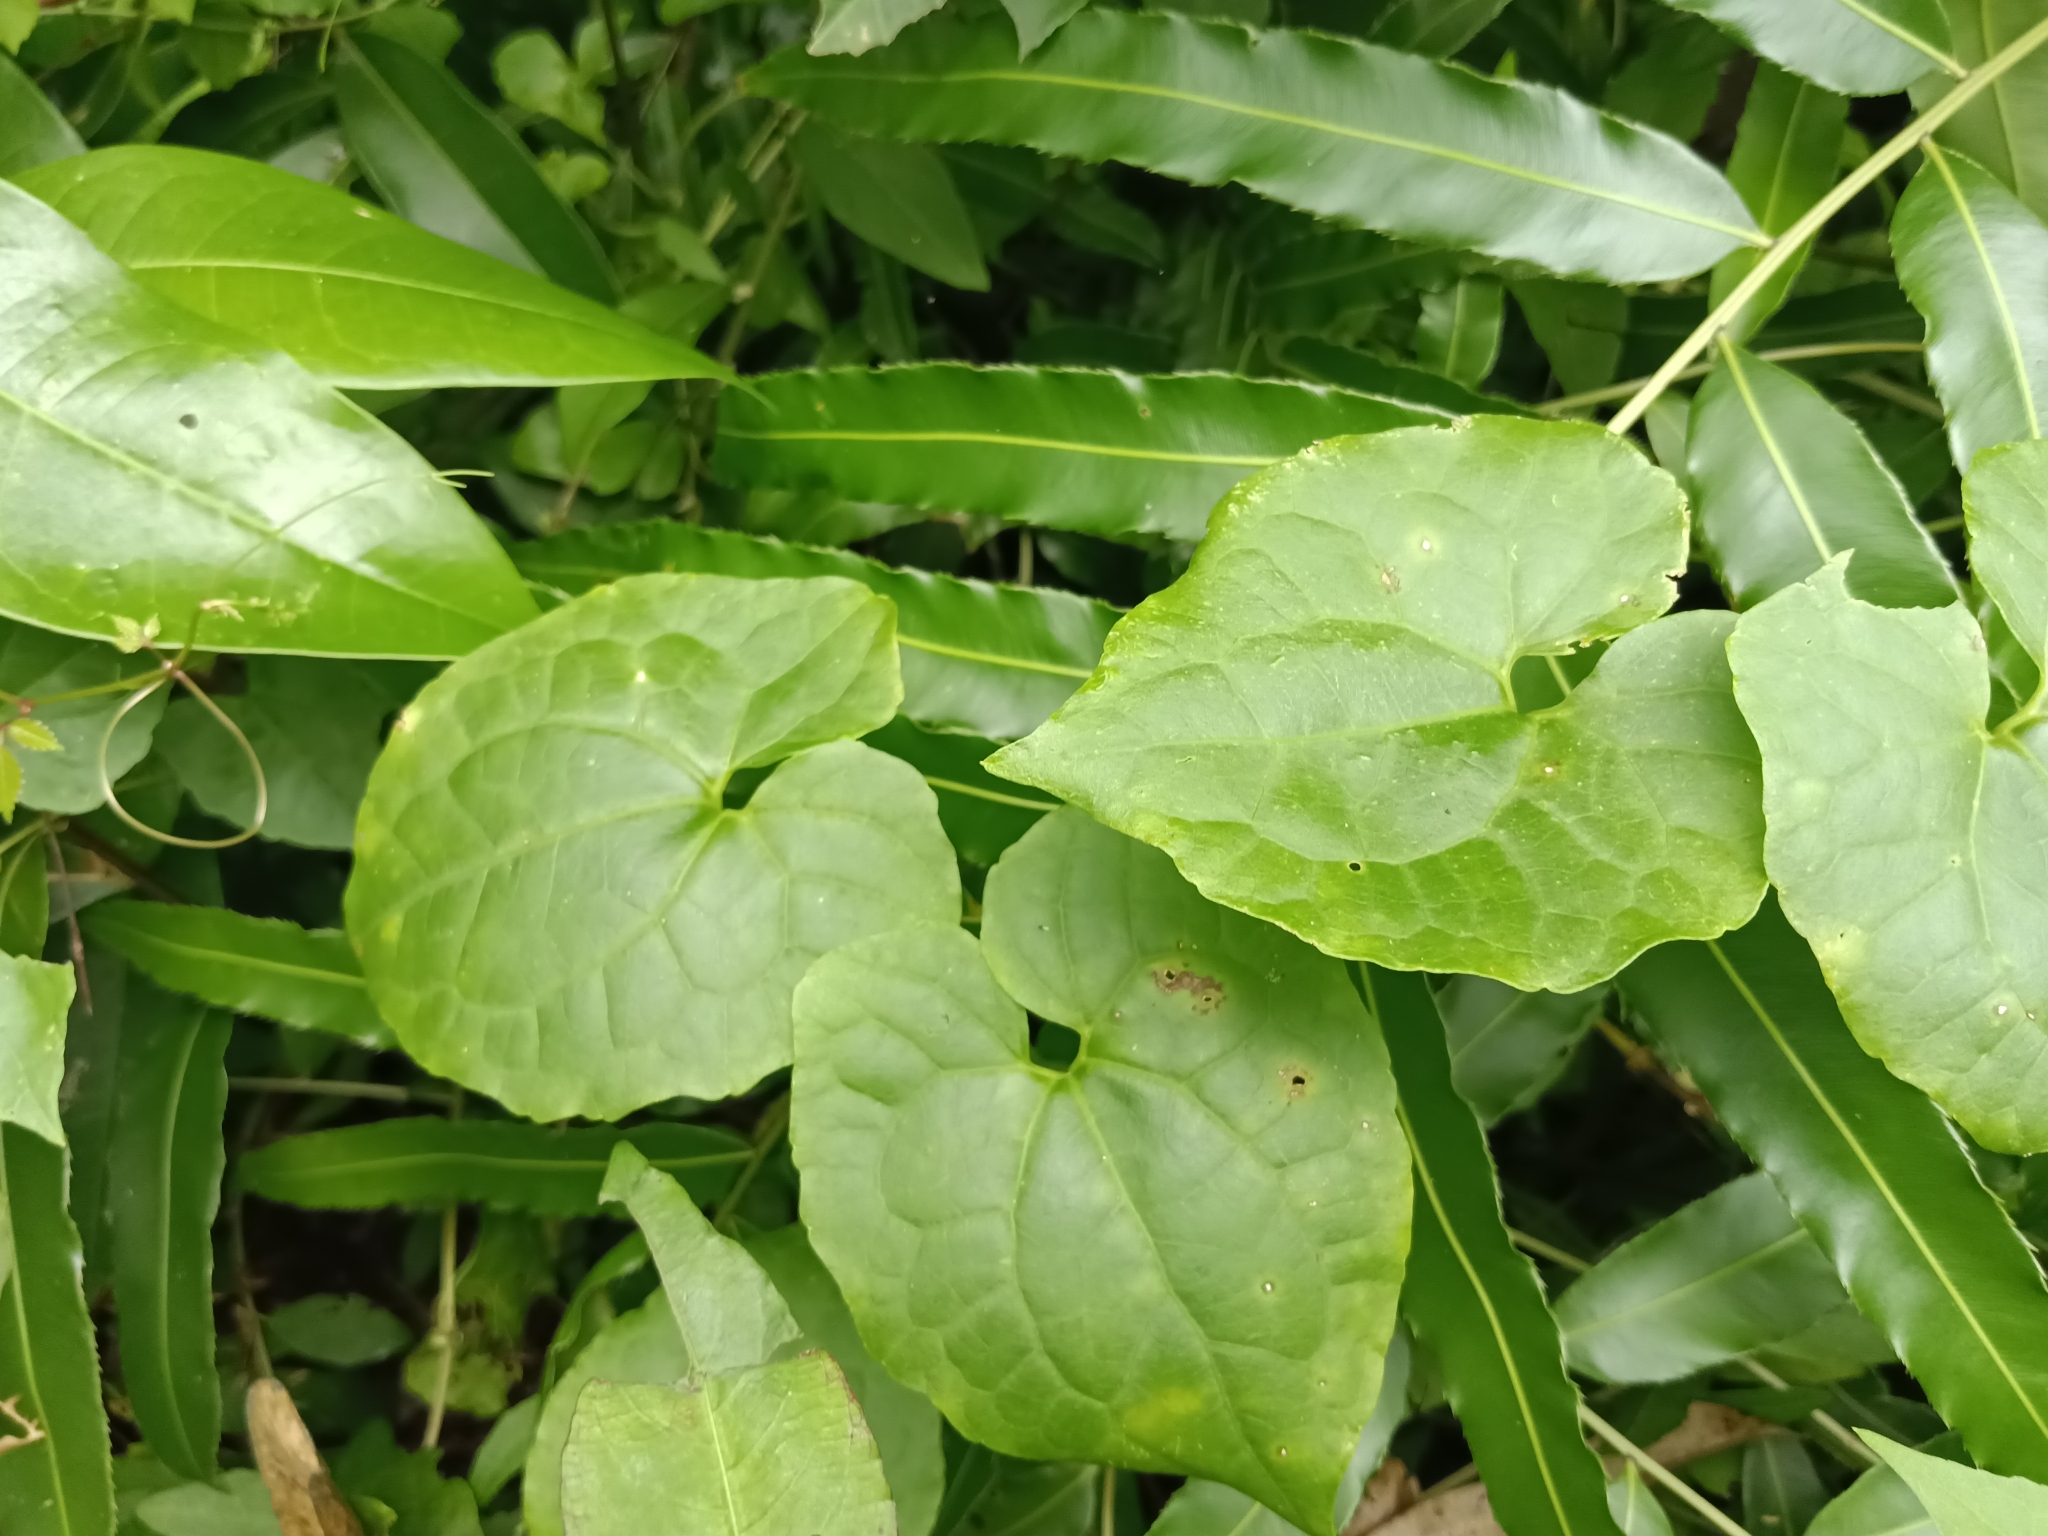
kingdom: Plantae
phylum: Tracheophyta
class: Magnoliopsida
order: Asterales
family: Asteraceae
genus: Mikania
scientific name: Mikania micrantha
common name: Mile-a-minute
